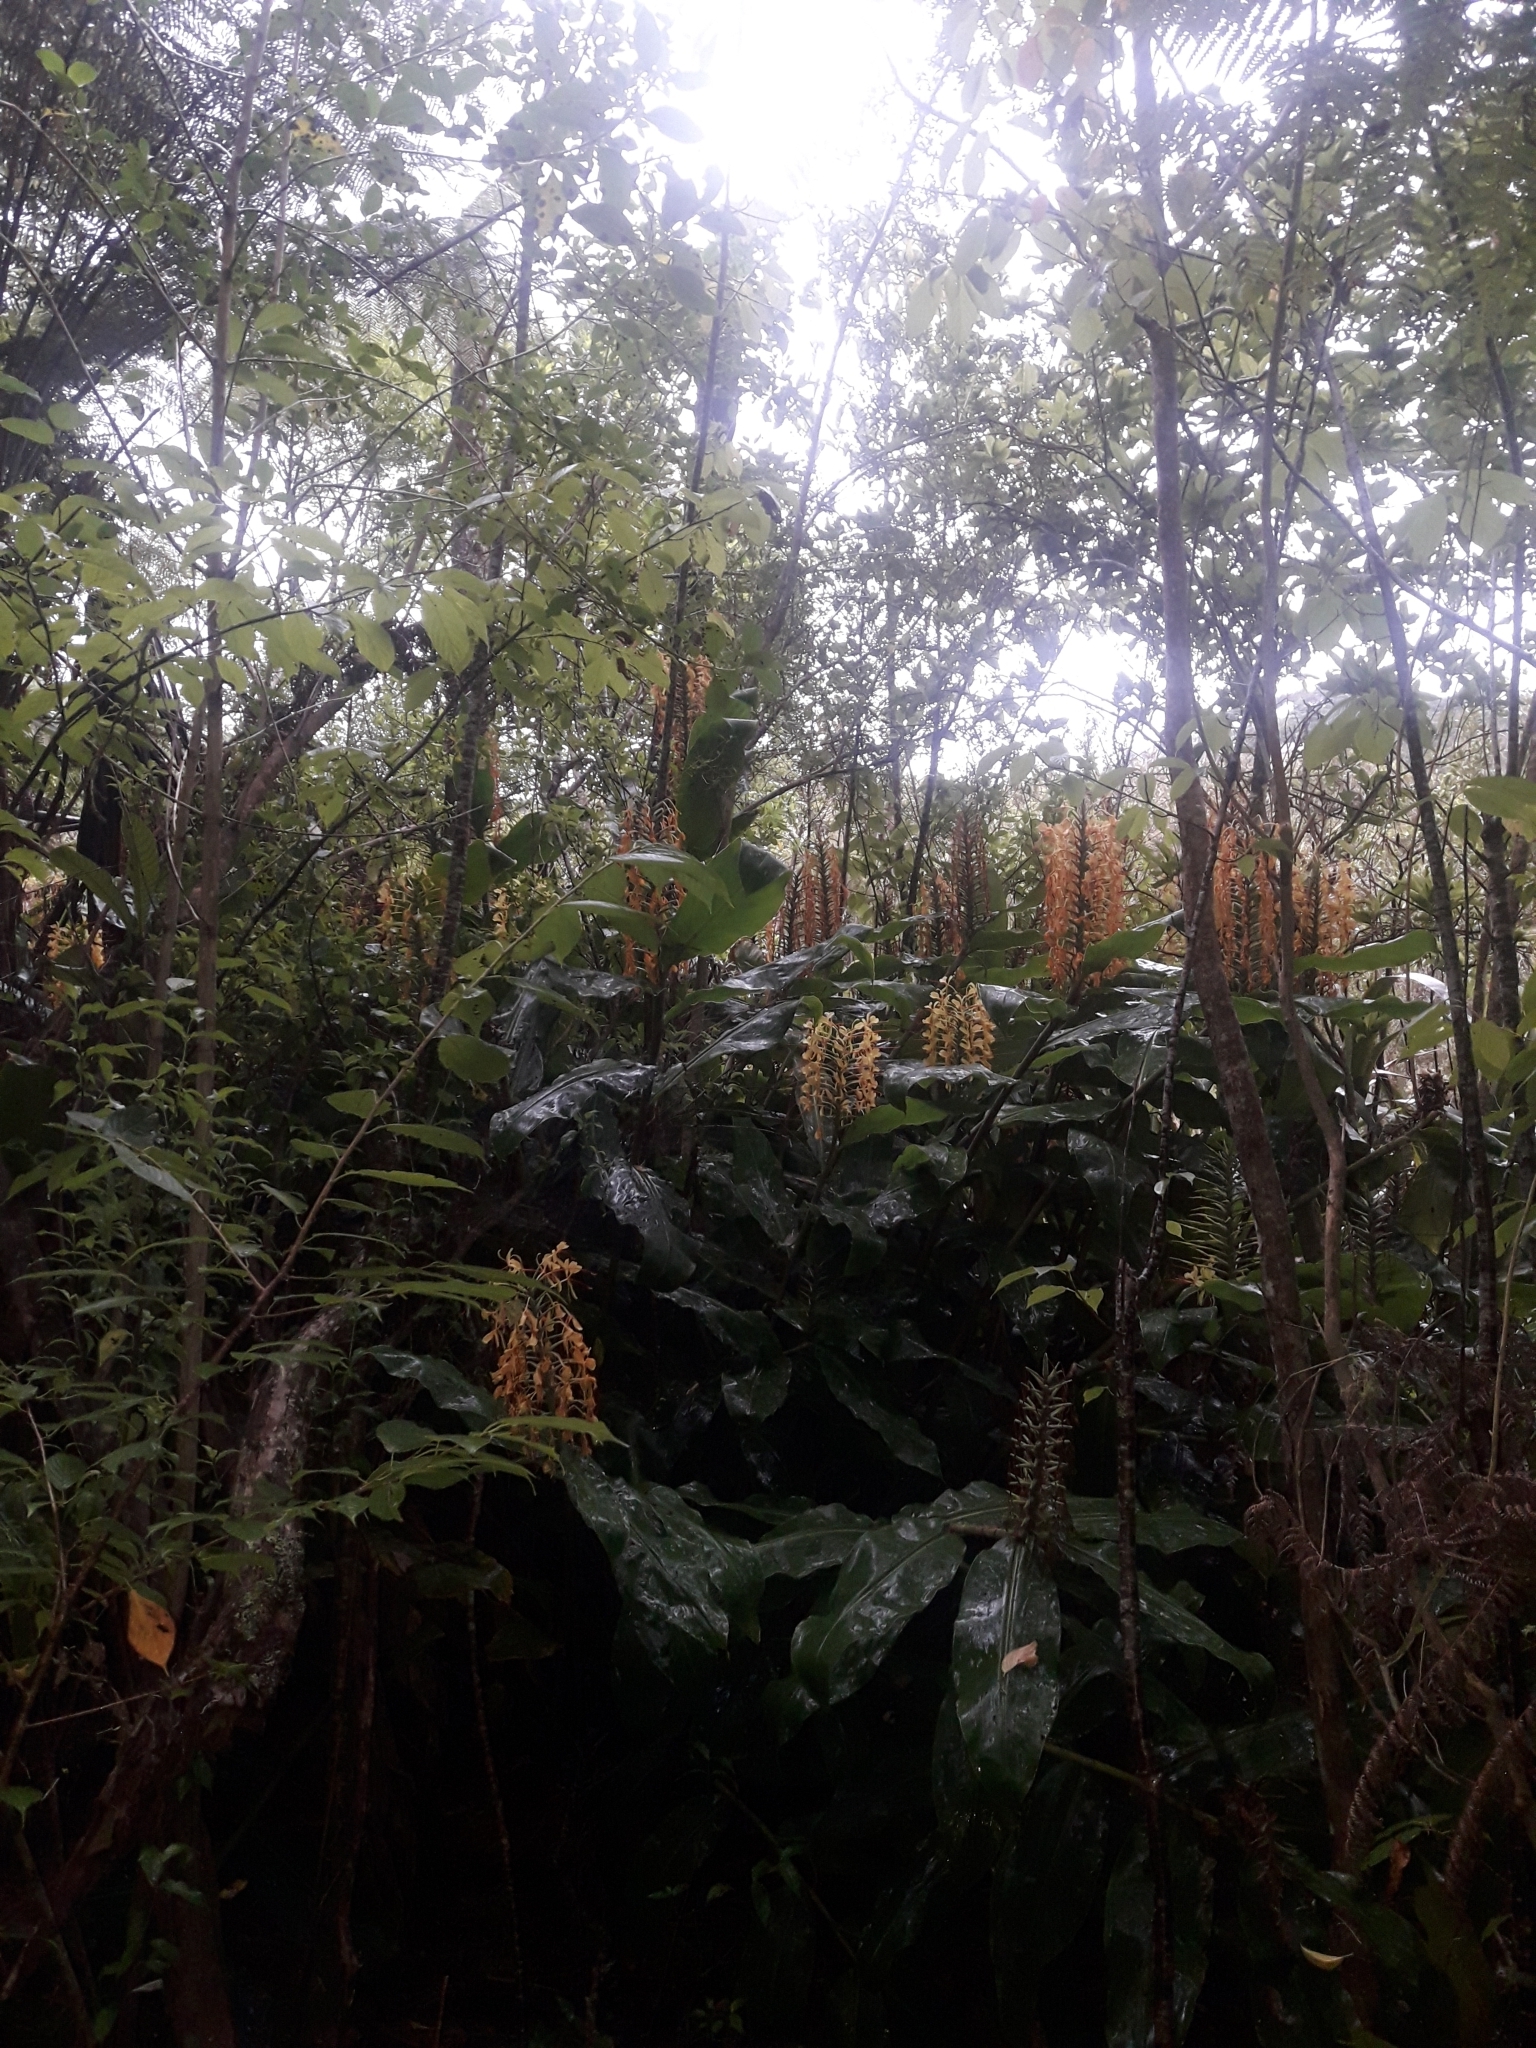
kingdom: Plantae
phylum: Tracheophyta
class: Liliopsida
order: Zingiberales
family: Zingiberaceae
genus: Hedychium
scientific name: Hedychium gardnerianum
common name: Himalayan ginger
